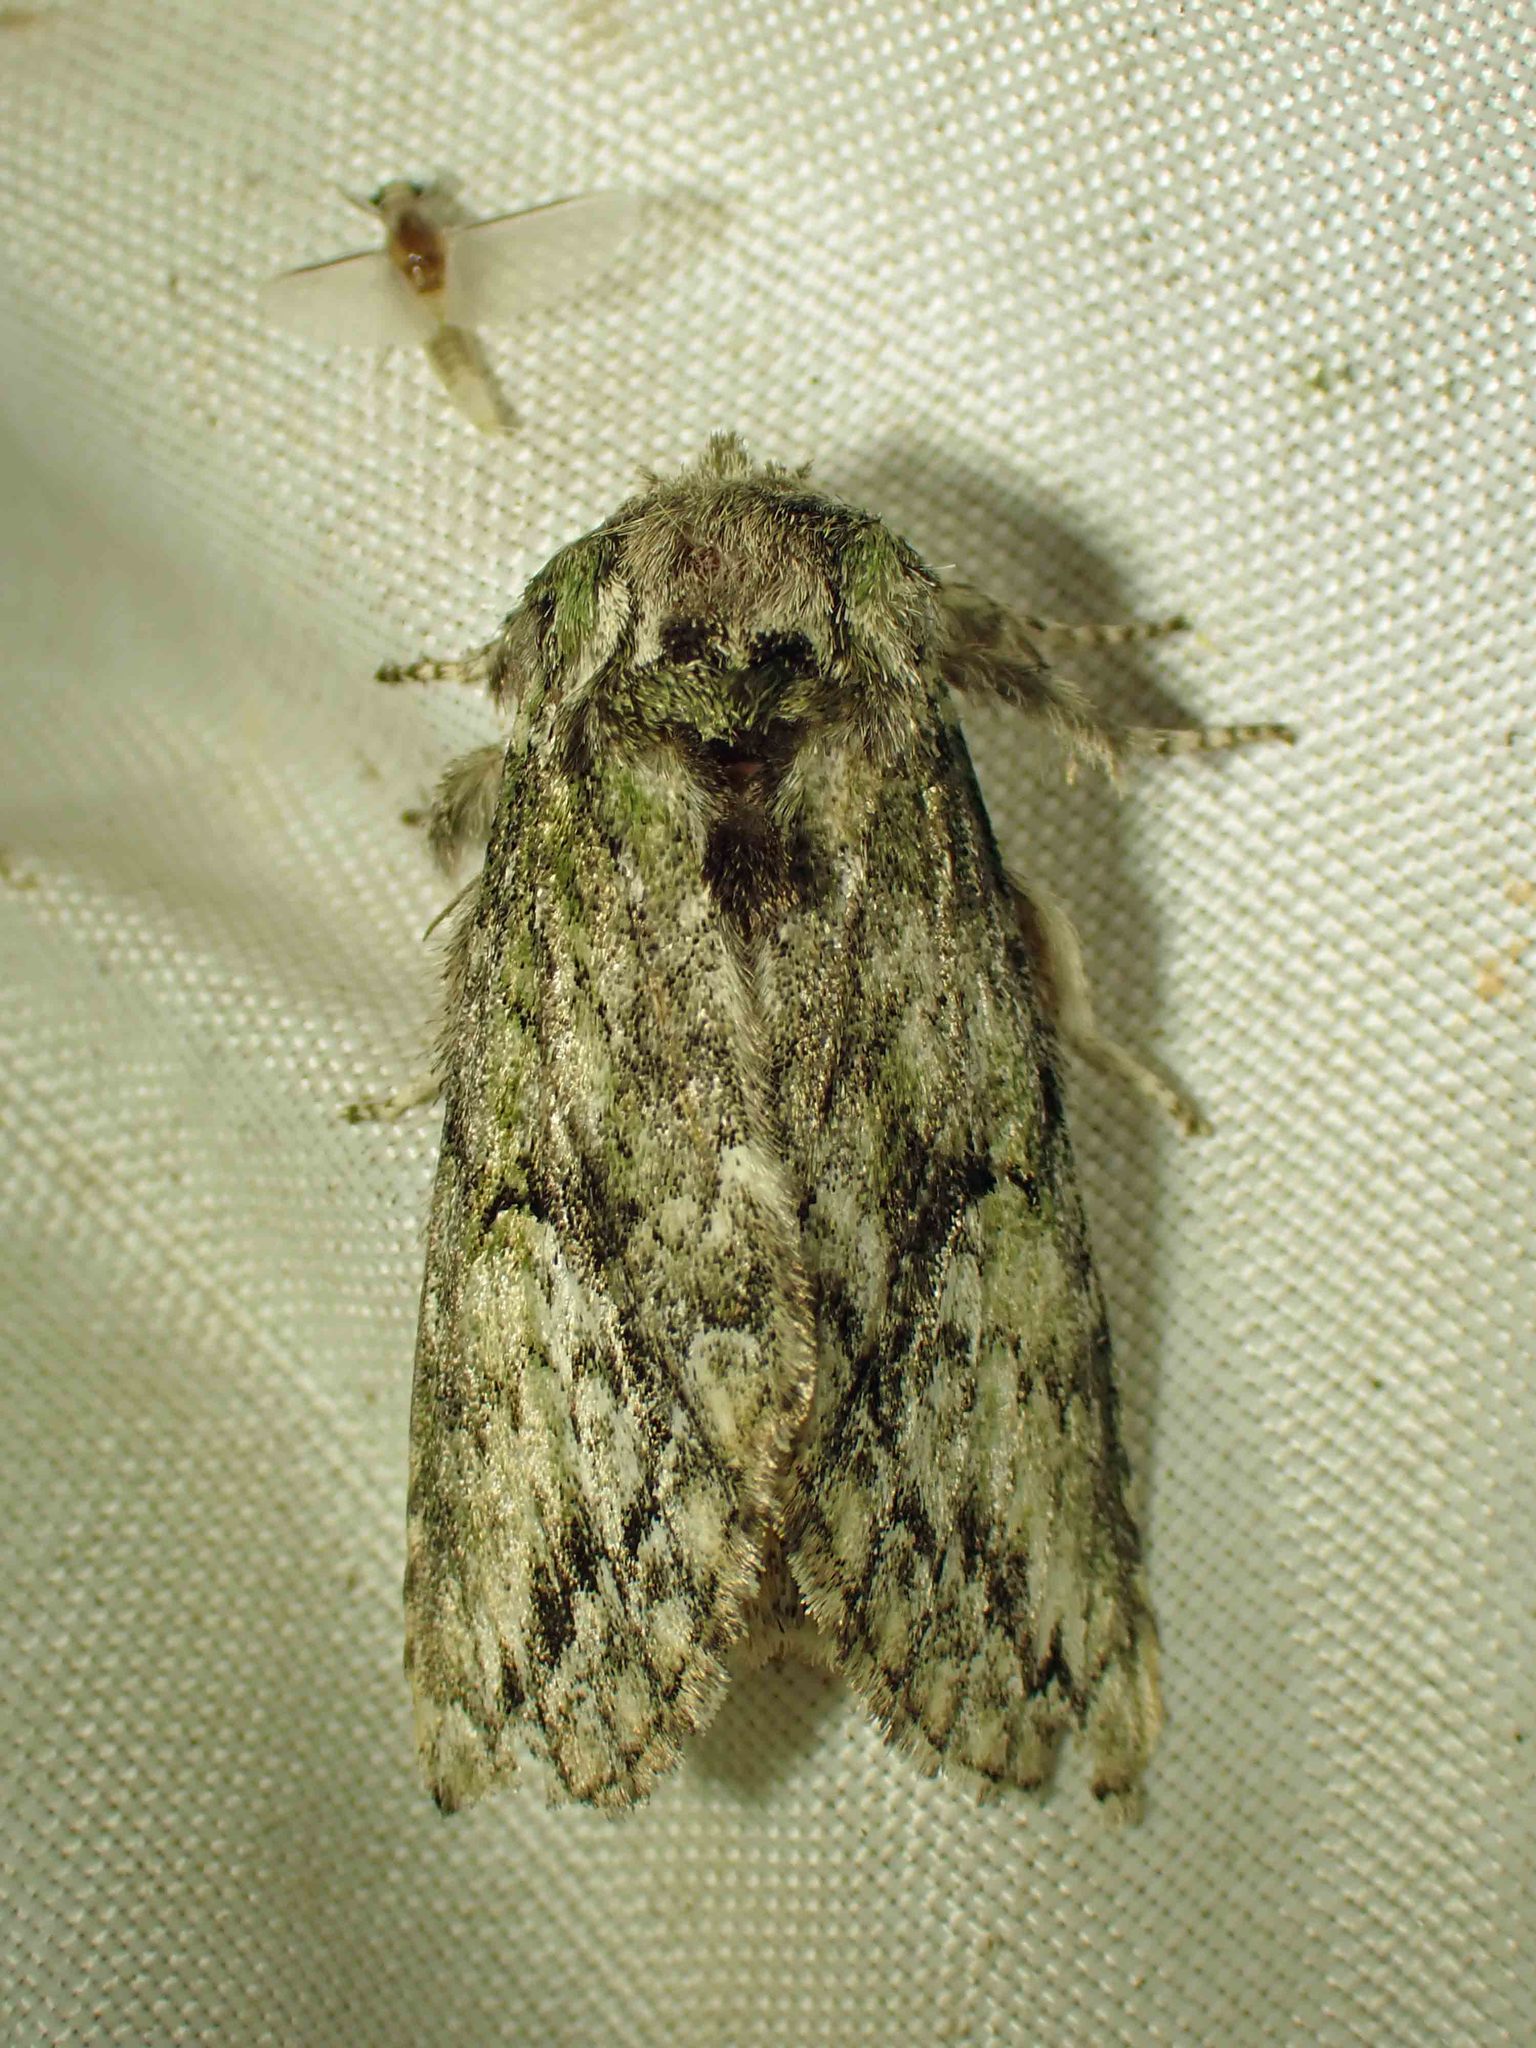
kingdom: Animalia
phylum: Arthropoda
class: Insecta
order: Lepidoptera
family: Notodontidae
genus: Heterocampa
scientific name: Heterocampa
